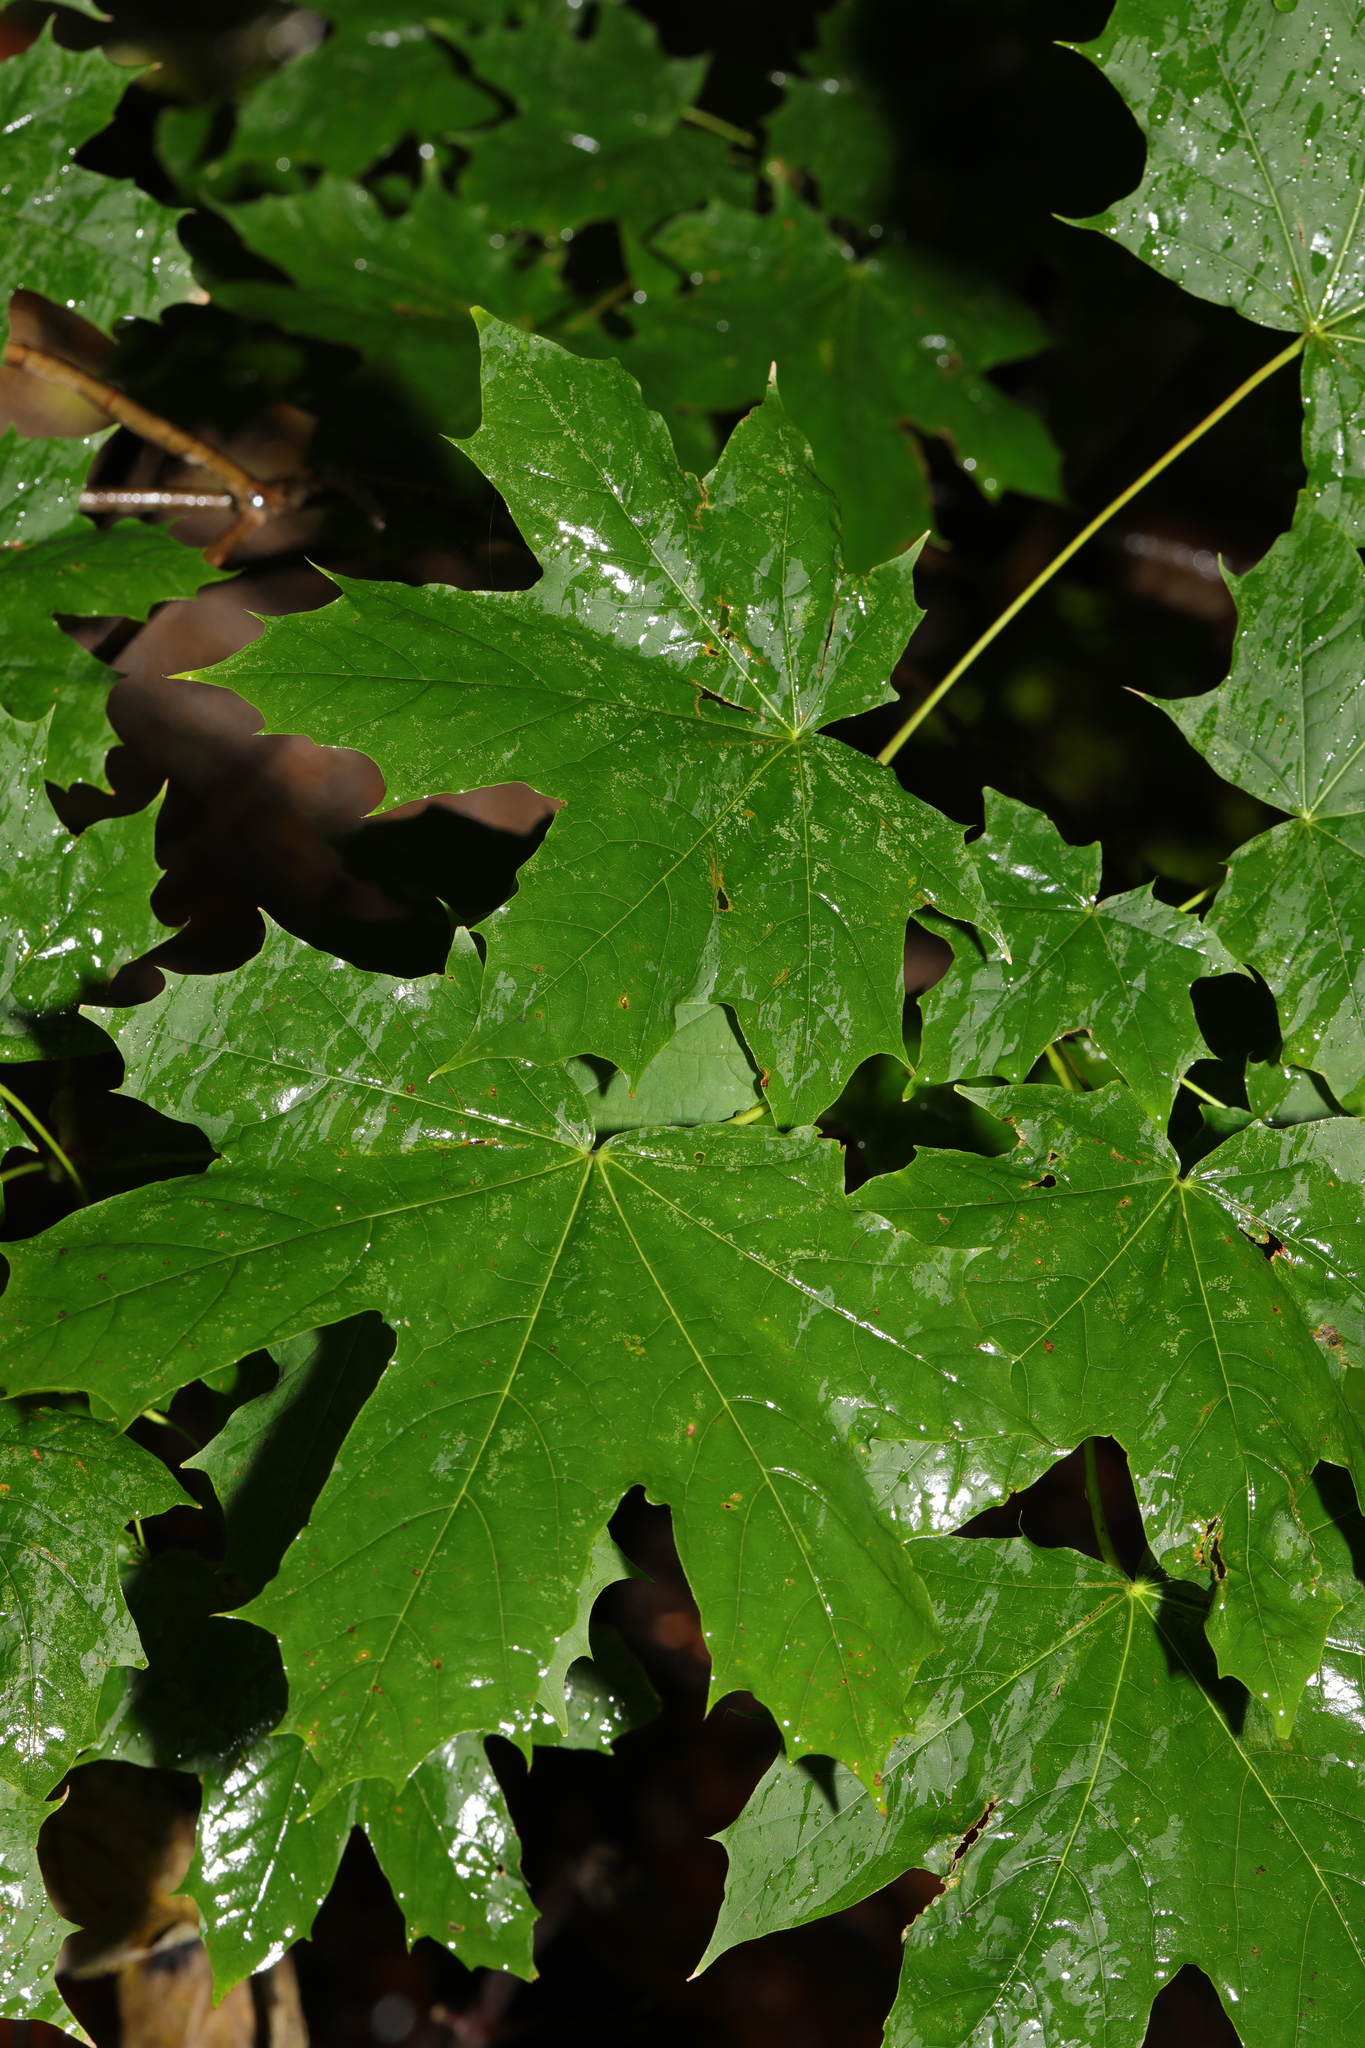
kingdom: Plantae
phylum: Tracheophyta
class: Magnoliopsida
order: Sapindales
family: Sapindaceae
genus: Acer
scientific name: Acer platanoides
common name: Norway maple
